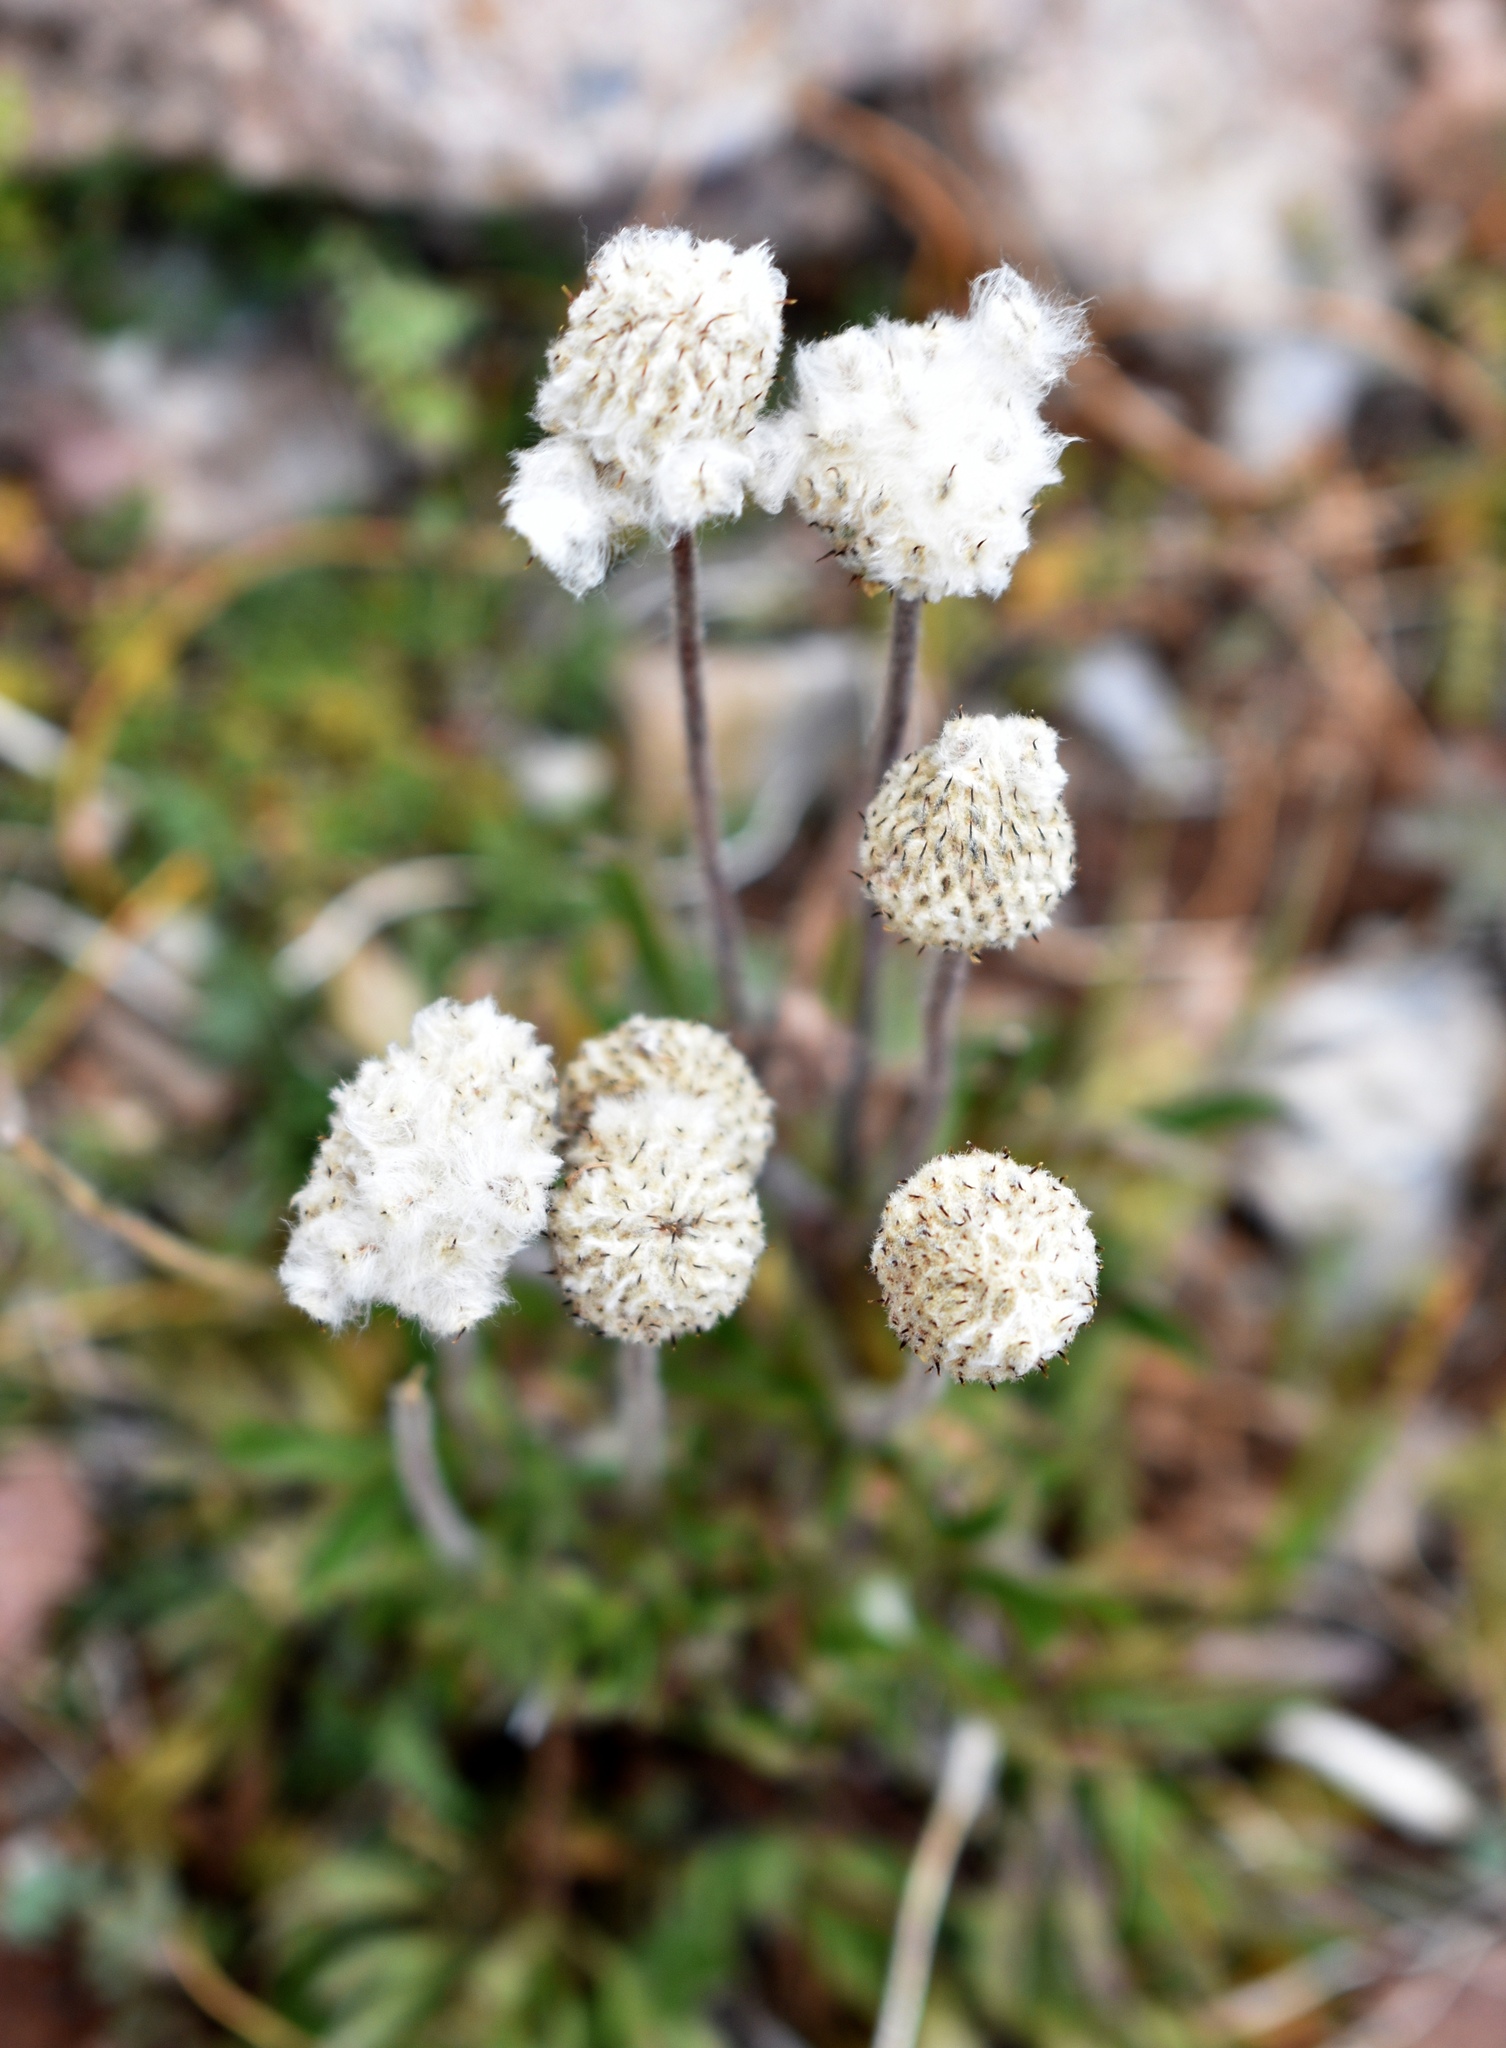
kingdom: Plantae
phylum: Tracheophyta
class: Magnoliopsida
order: Ranunculales
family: Ranunculaceae
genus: Anemone
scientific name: Anemone multifida
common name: Bird's-foot anemone
